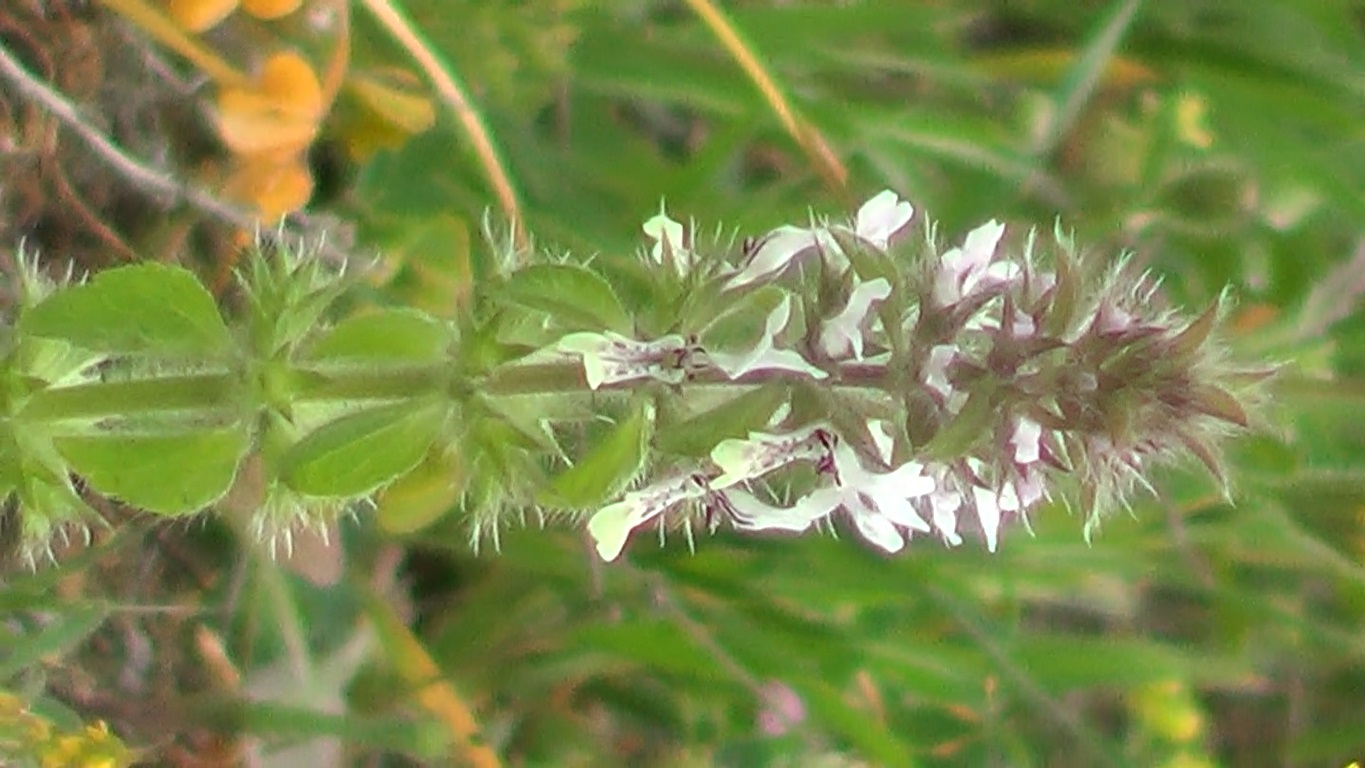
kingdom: Plantae
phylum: Tracheophyta
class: Magnoliopsida
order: Lamiales
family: Lamiaceae
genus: Stachys
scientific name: Stachys ocymastrum
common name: Italian hedgenettle
